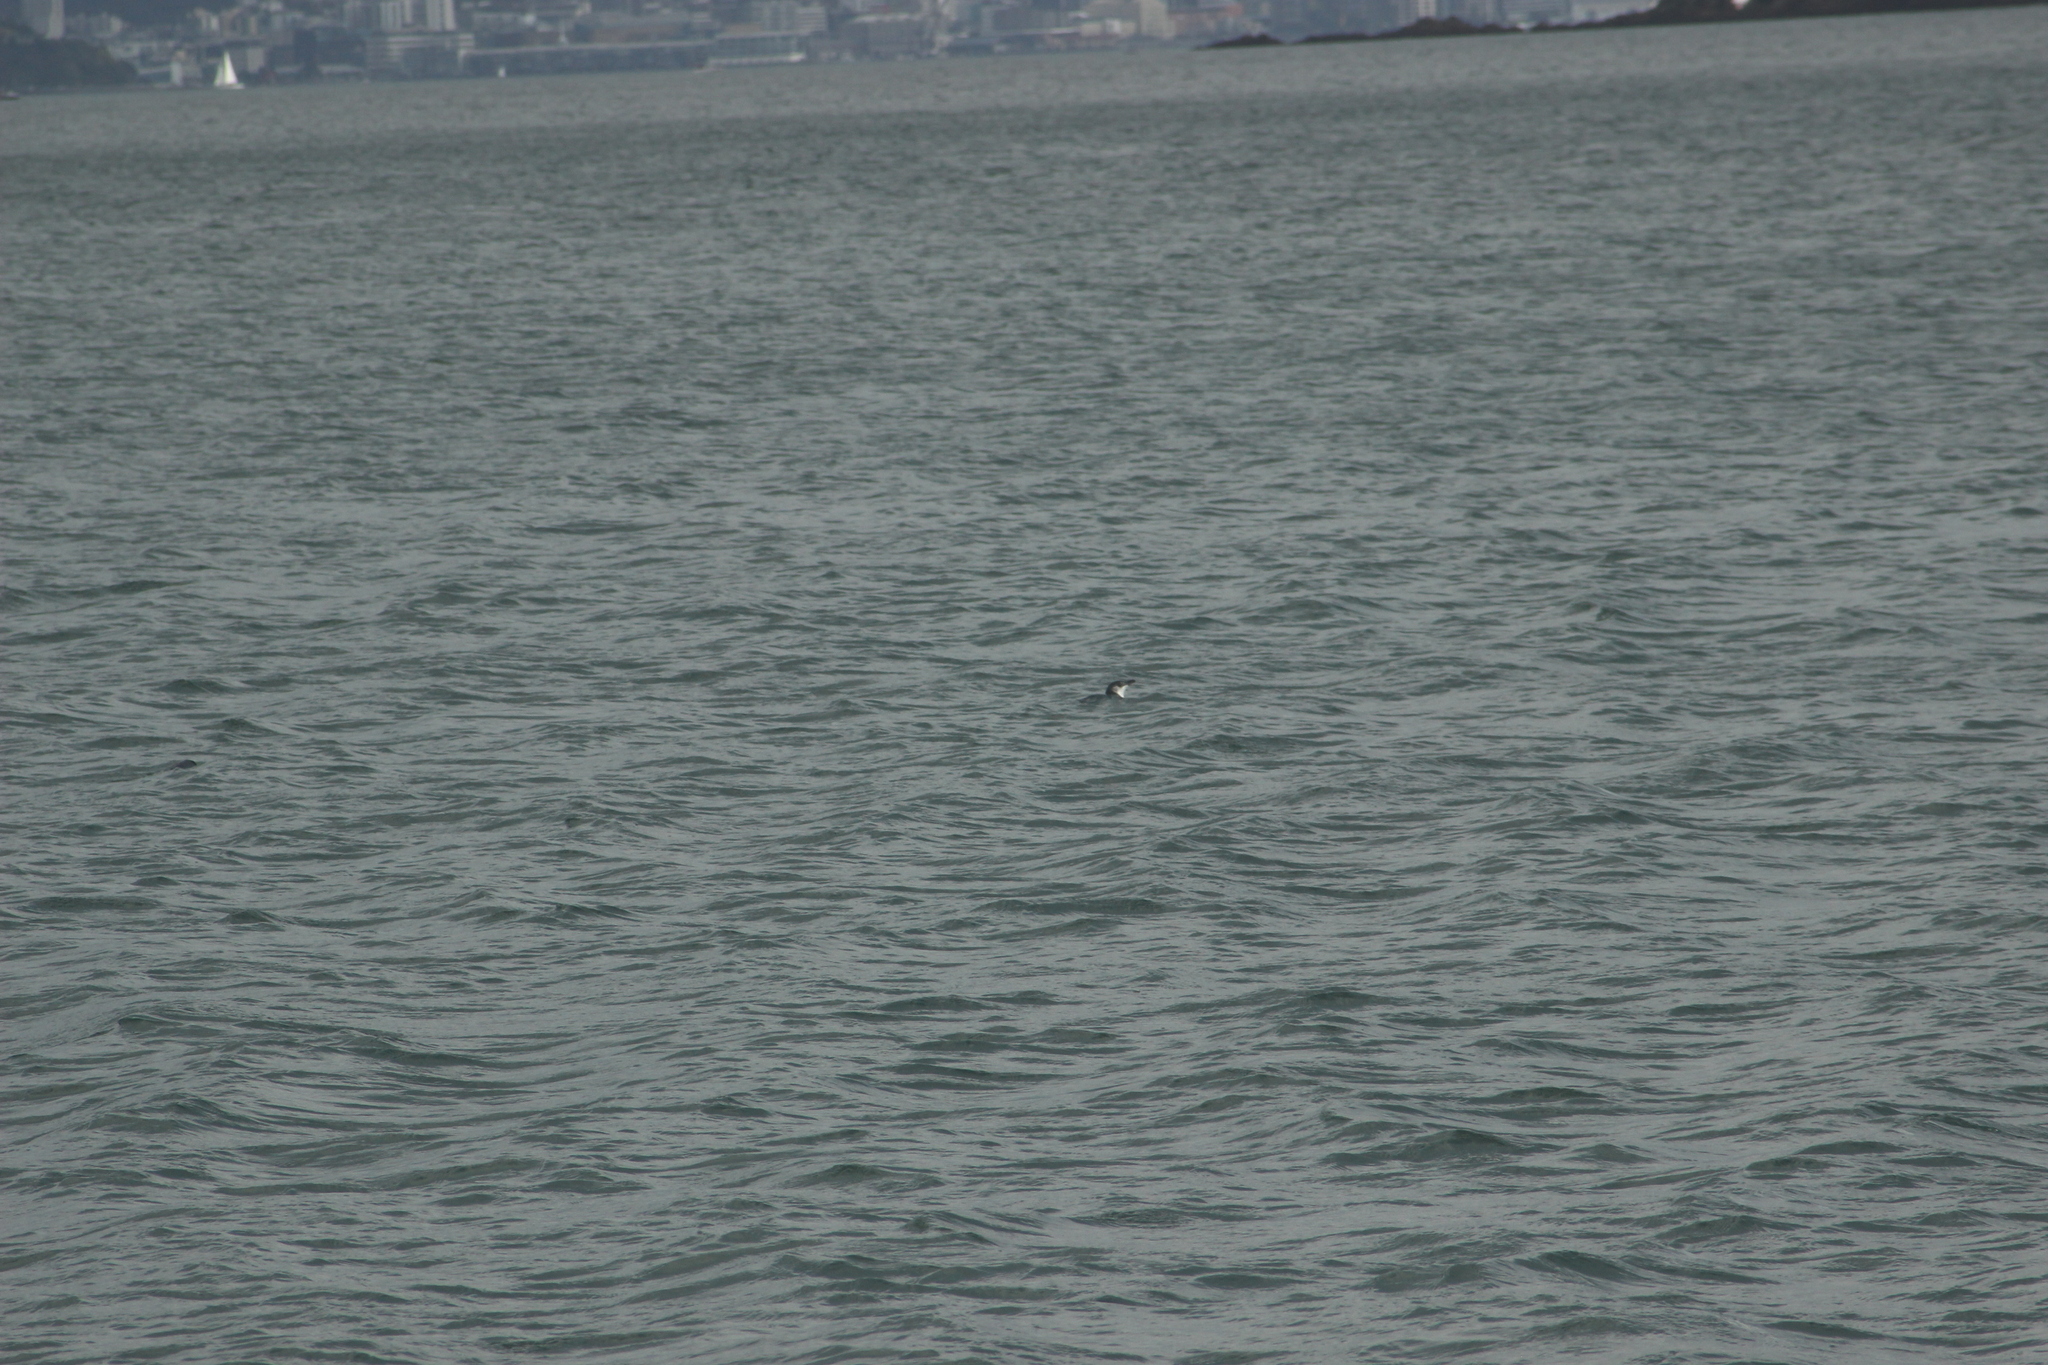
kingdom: Animalia
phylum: Chordata
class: Aves
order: Sphenisciformes
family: Spheniscidae
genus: Eudyptula
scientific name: Eudyptula minor
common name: Little penguin
